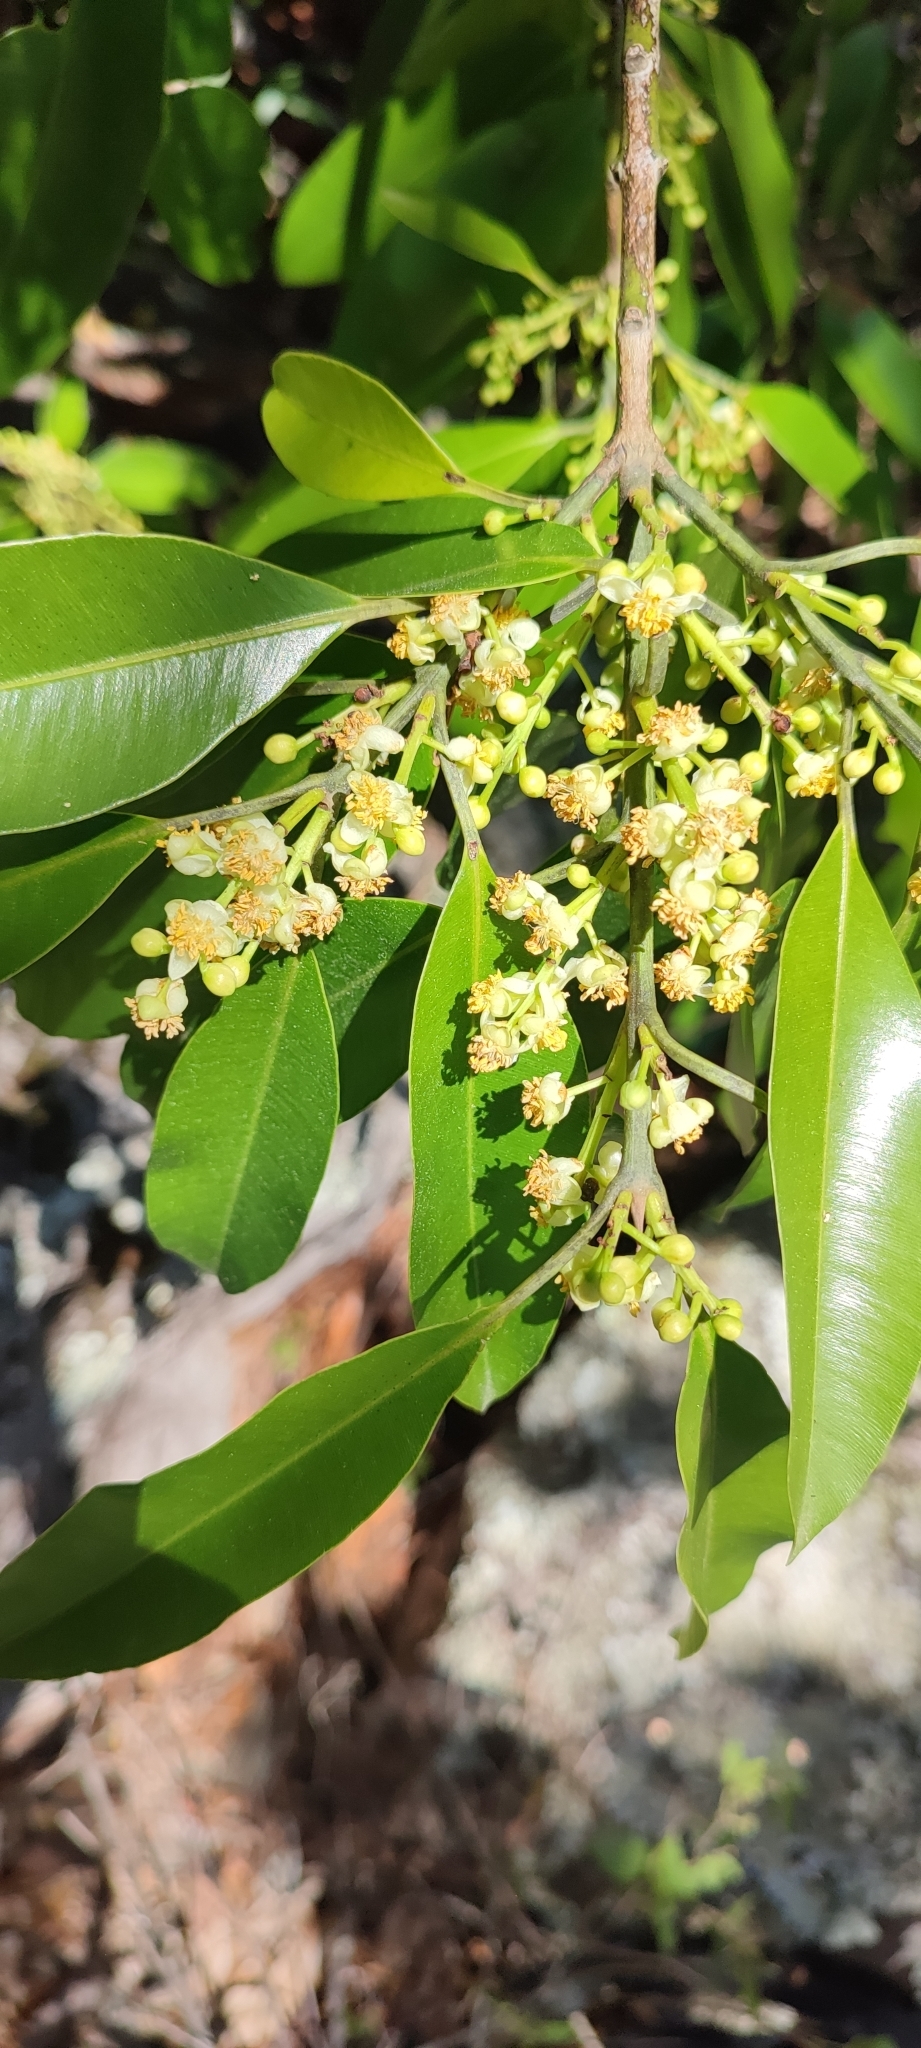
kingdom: Plantae
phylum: Tracheophyta
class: Magnoliopsida
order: Malpighiales
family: Calophyllaceae
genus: Calophyllum
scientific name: Calophyllum brasiliense
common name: Santa maria
